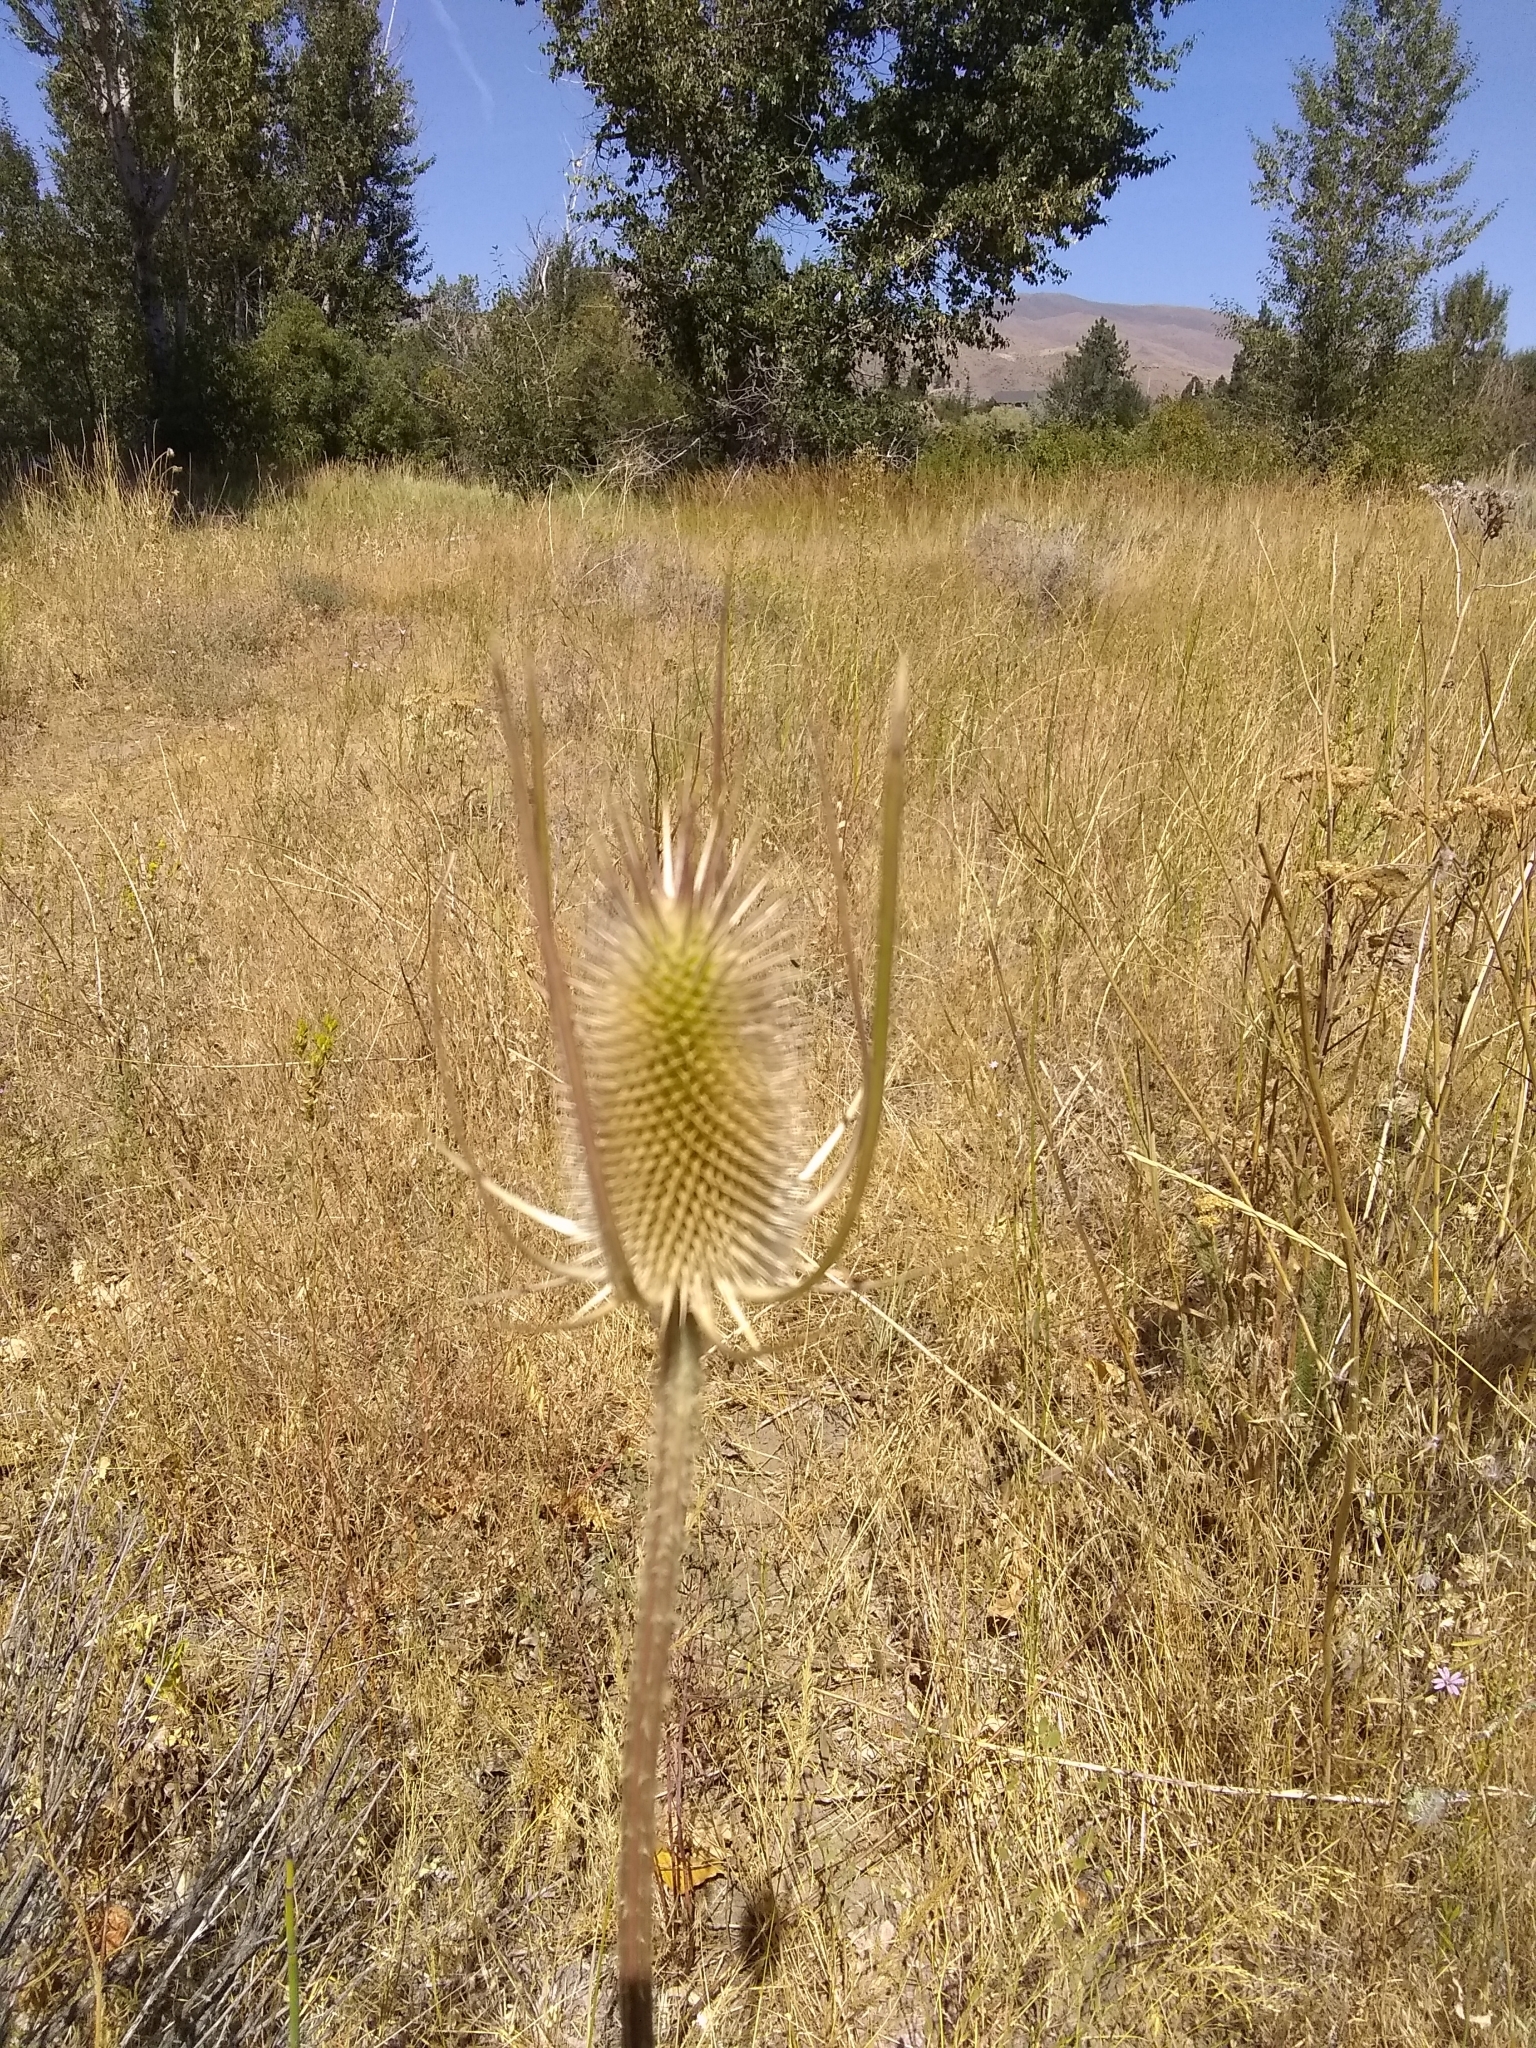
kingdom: Plantae
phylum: Tracheophyta
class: Magnoliopsida
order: Dipsacales
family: Caprifoliaceae
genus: Dipsacus
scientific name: Dipsacus fullonum
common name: Teasel
